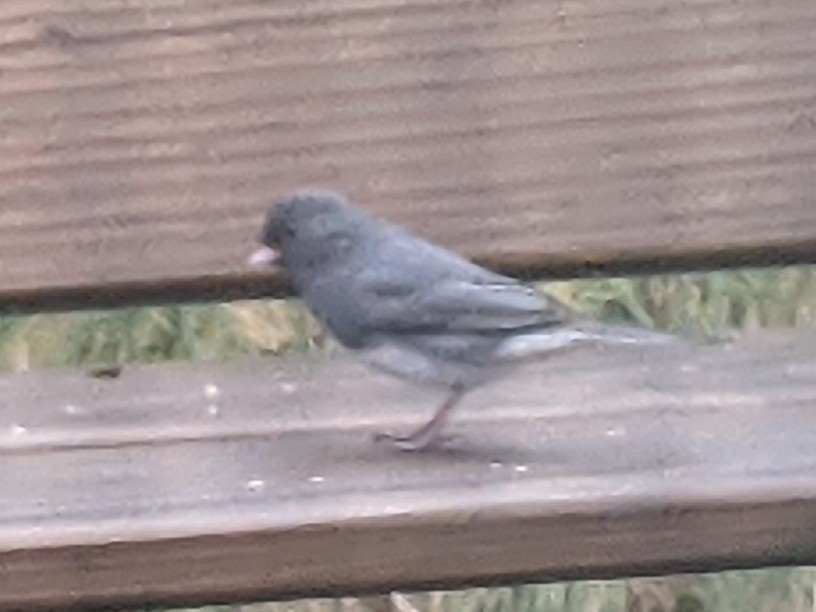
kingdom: Animalia
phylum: Chordata
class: Aves
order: Passeriformes
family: Passerellidae
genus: Junco
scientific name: Junco hyemalis
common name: Dark-eyed junco
